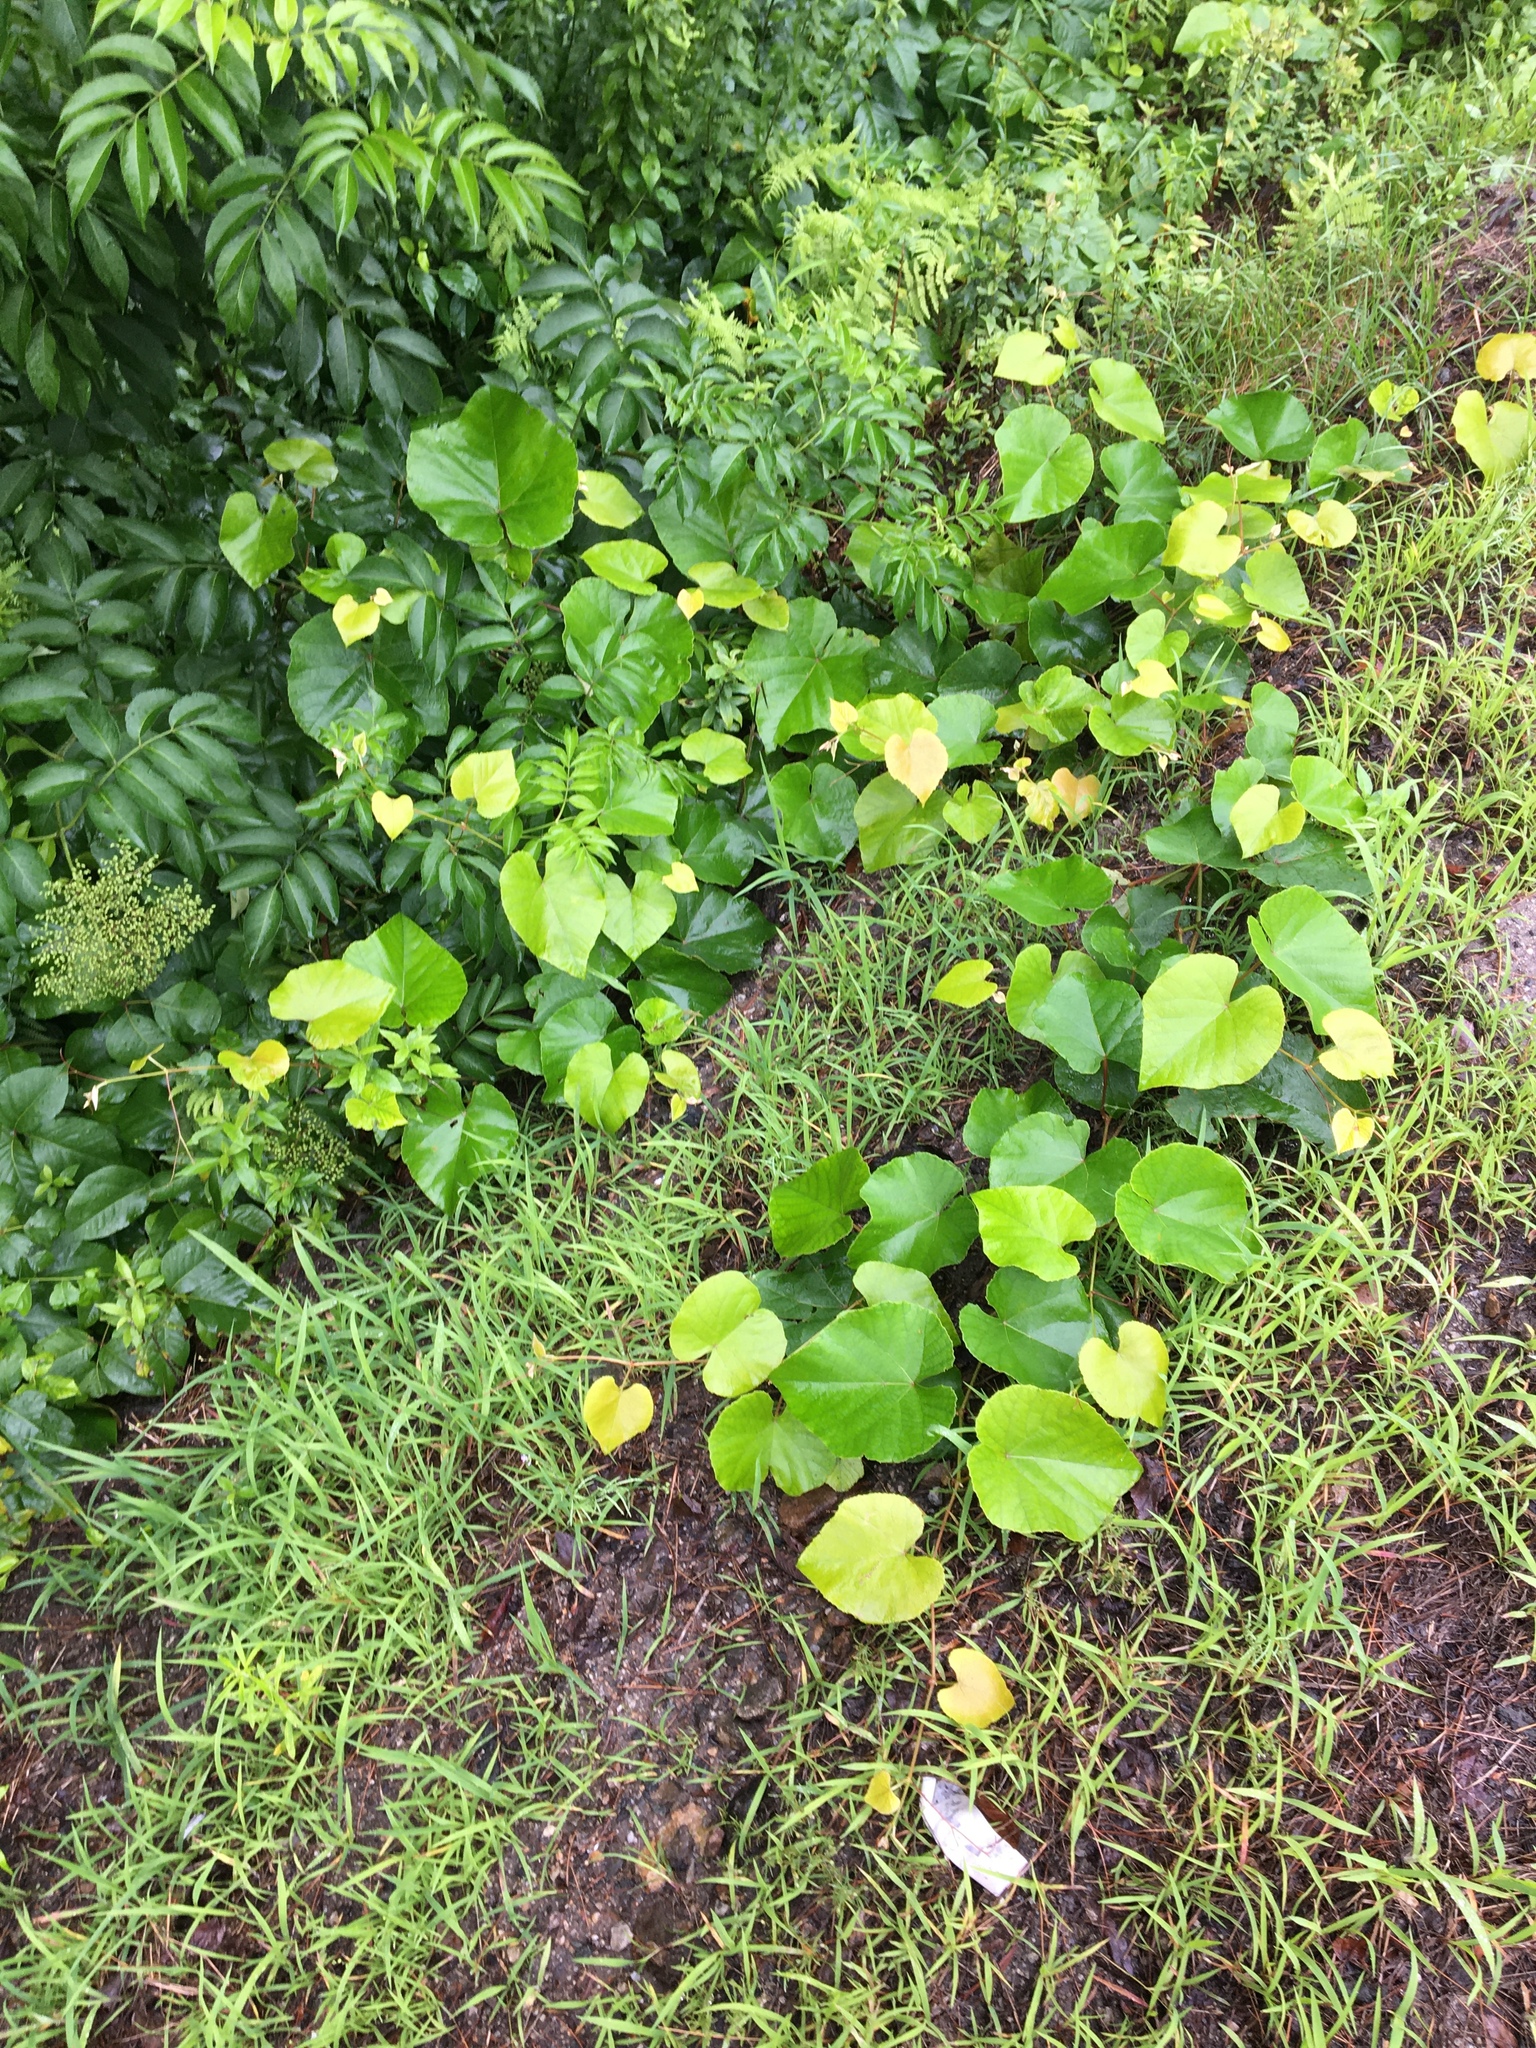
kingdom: Plantae
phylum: Tracheophyta
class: Magnoliopsida
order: Vitales
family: Vitaceae
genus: Vitis
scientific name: Vitis labrusca
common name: Concord grape
